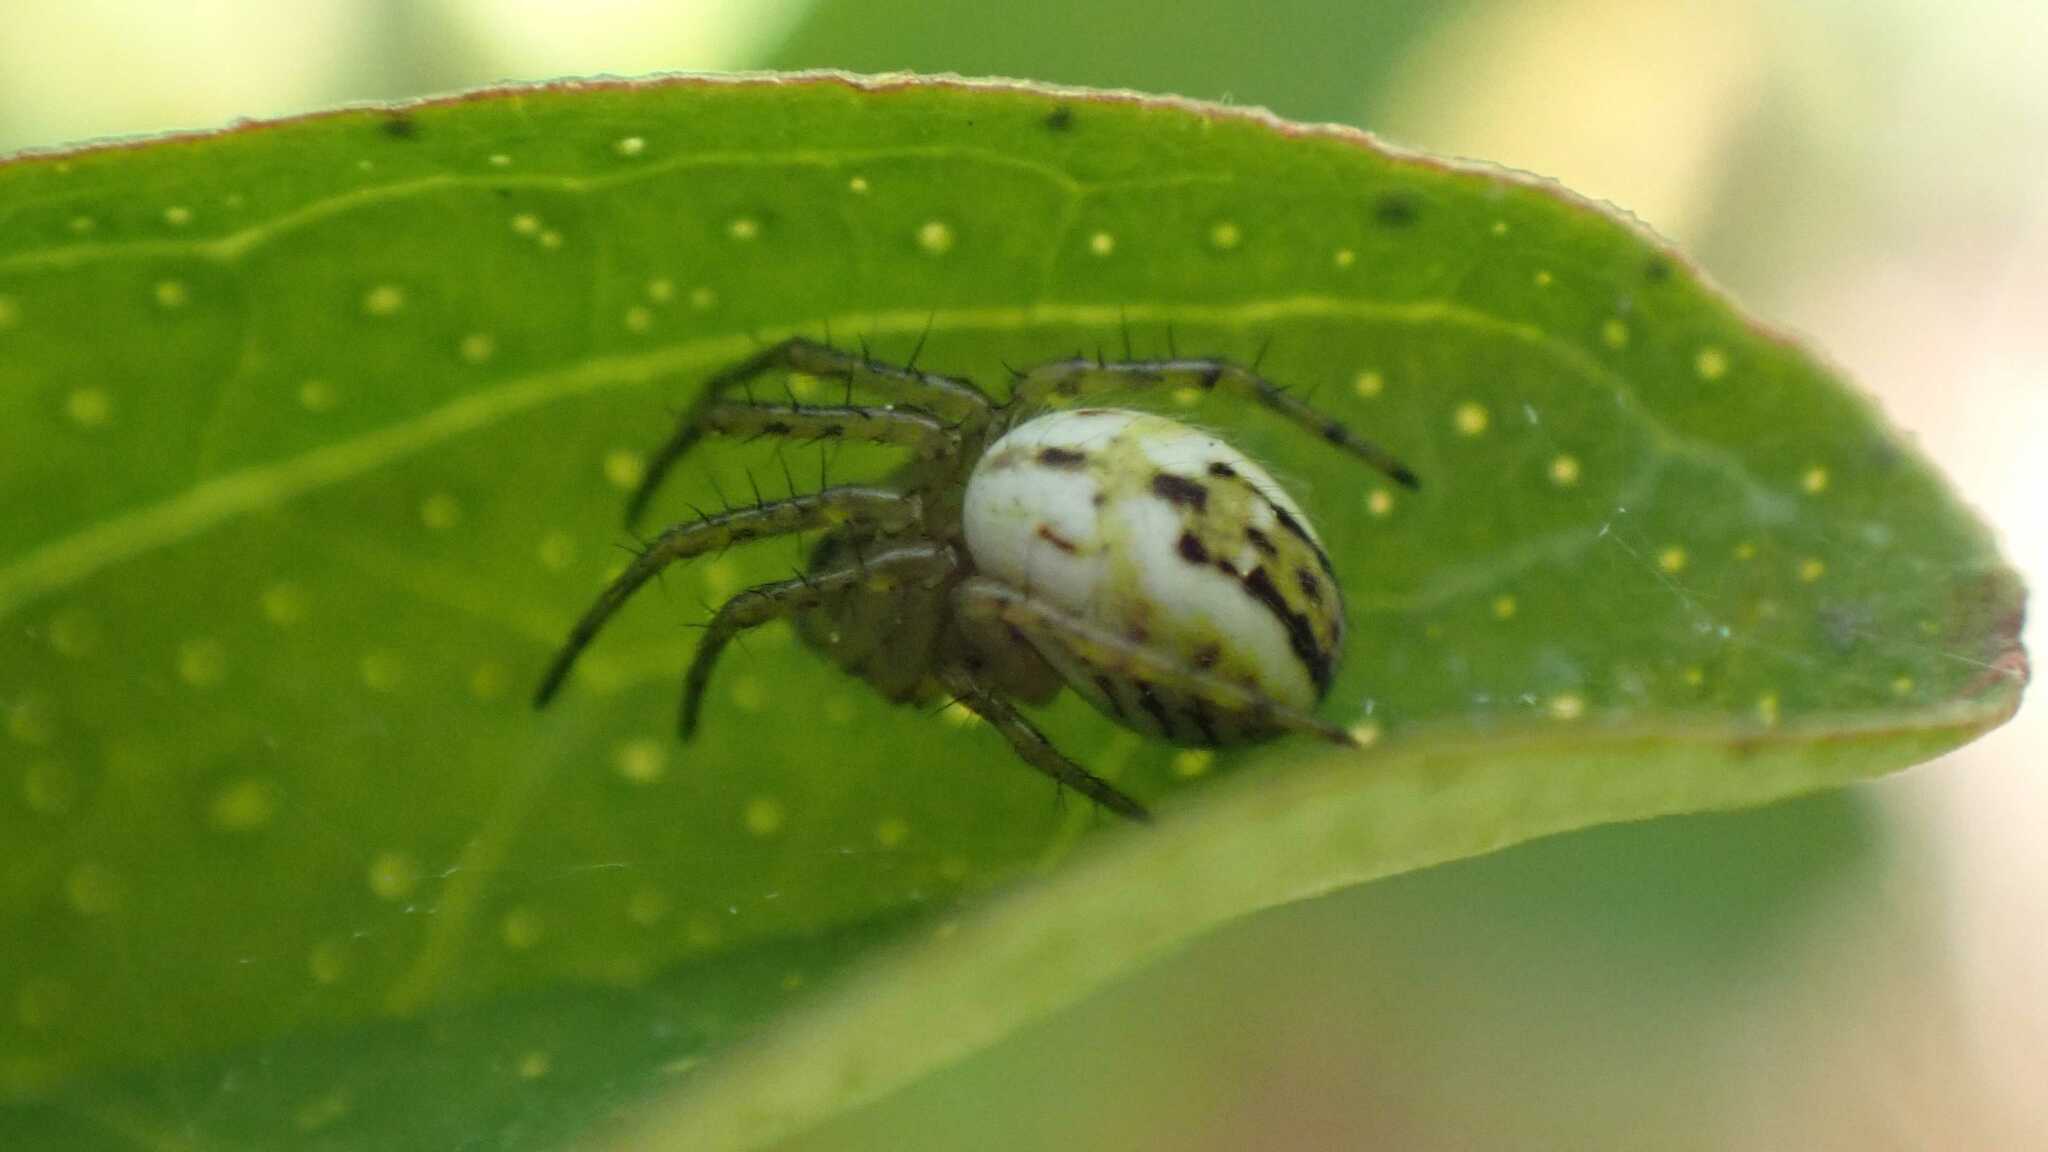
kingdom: Animalia
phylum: Arthropoda
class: Arachnida
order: Araneae
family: Araneidae
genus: Mangora
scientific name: Mangora acalypha
